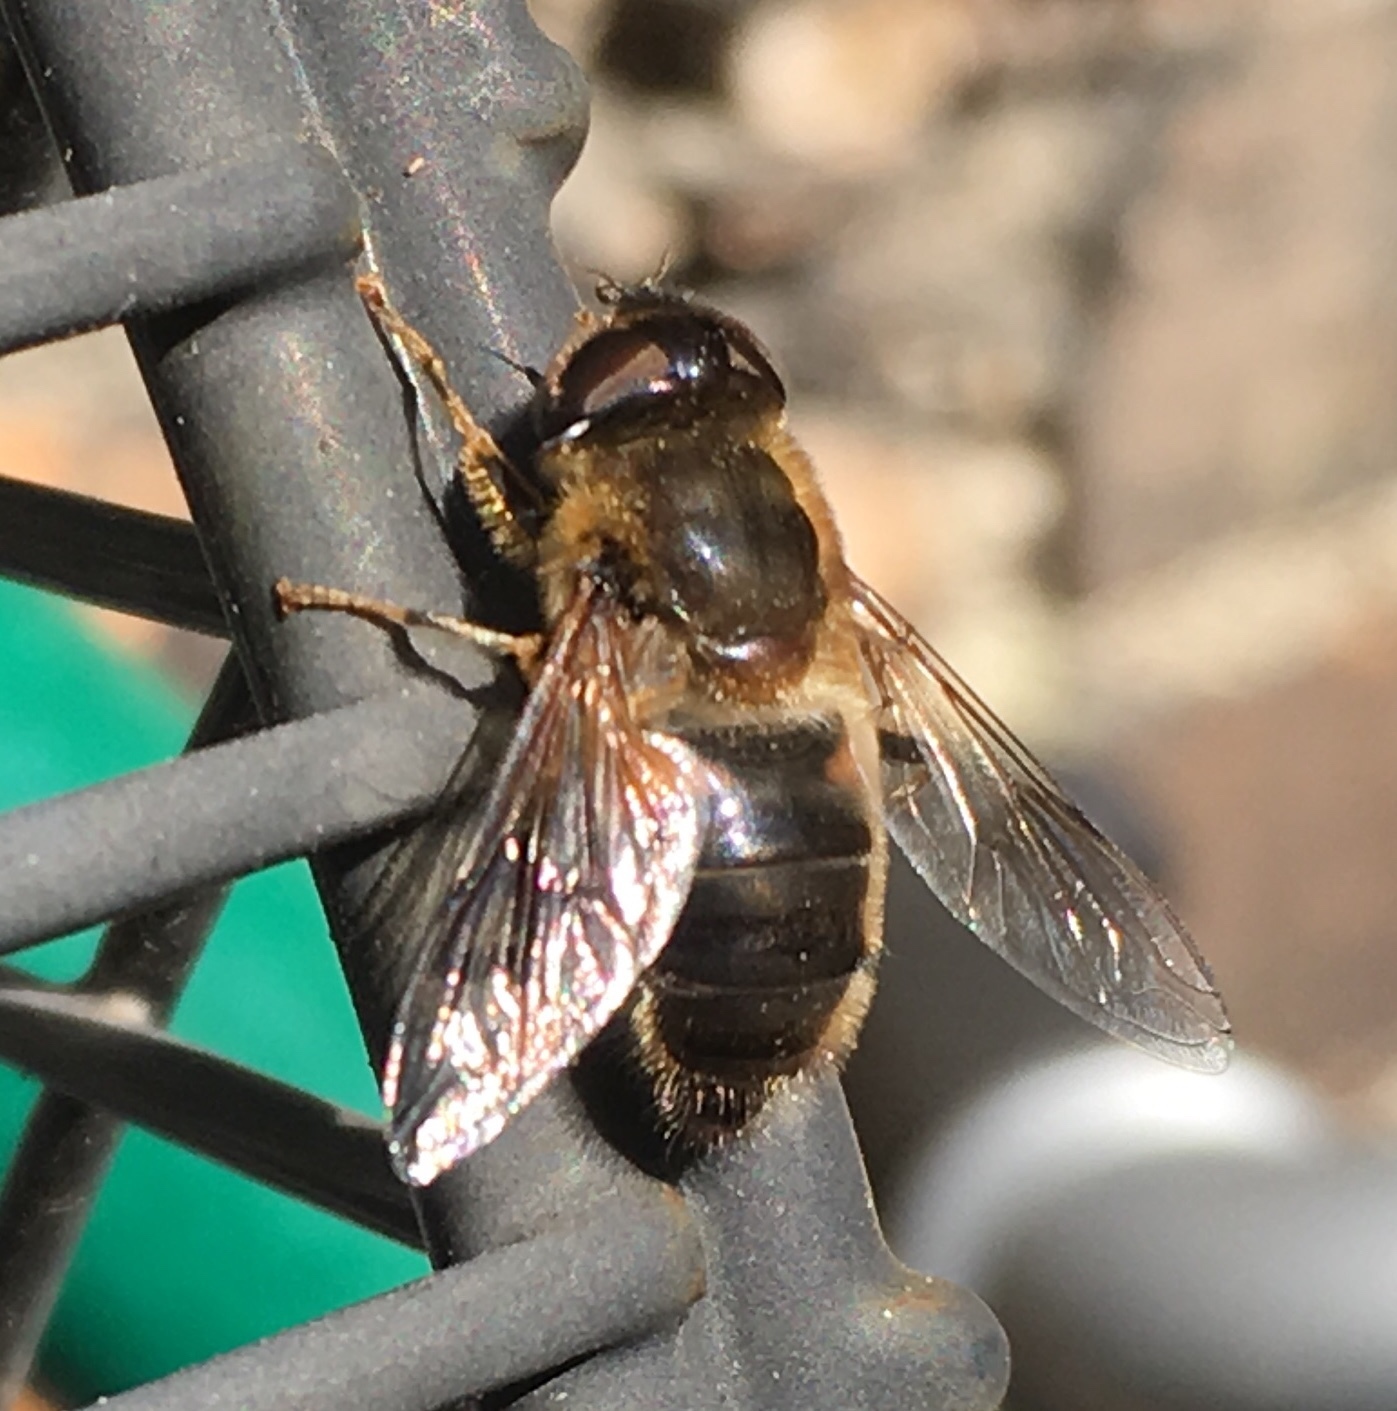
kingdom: Animalia
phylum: Arthropoda
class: Insecta
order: Diptera
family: Syrphidae
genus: Eristalis
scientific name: Eristalis pertinax
